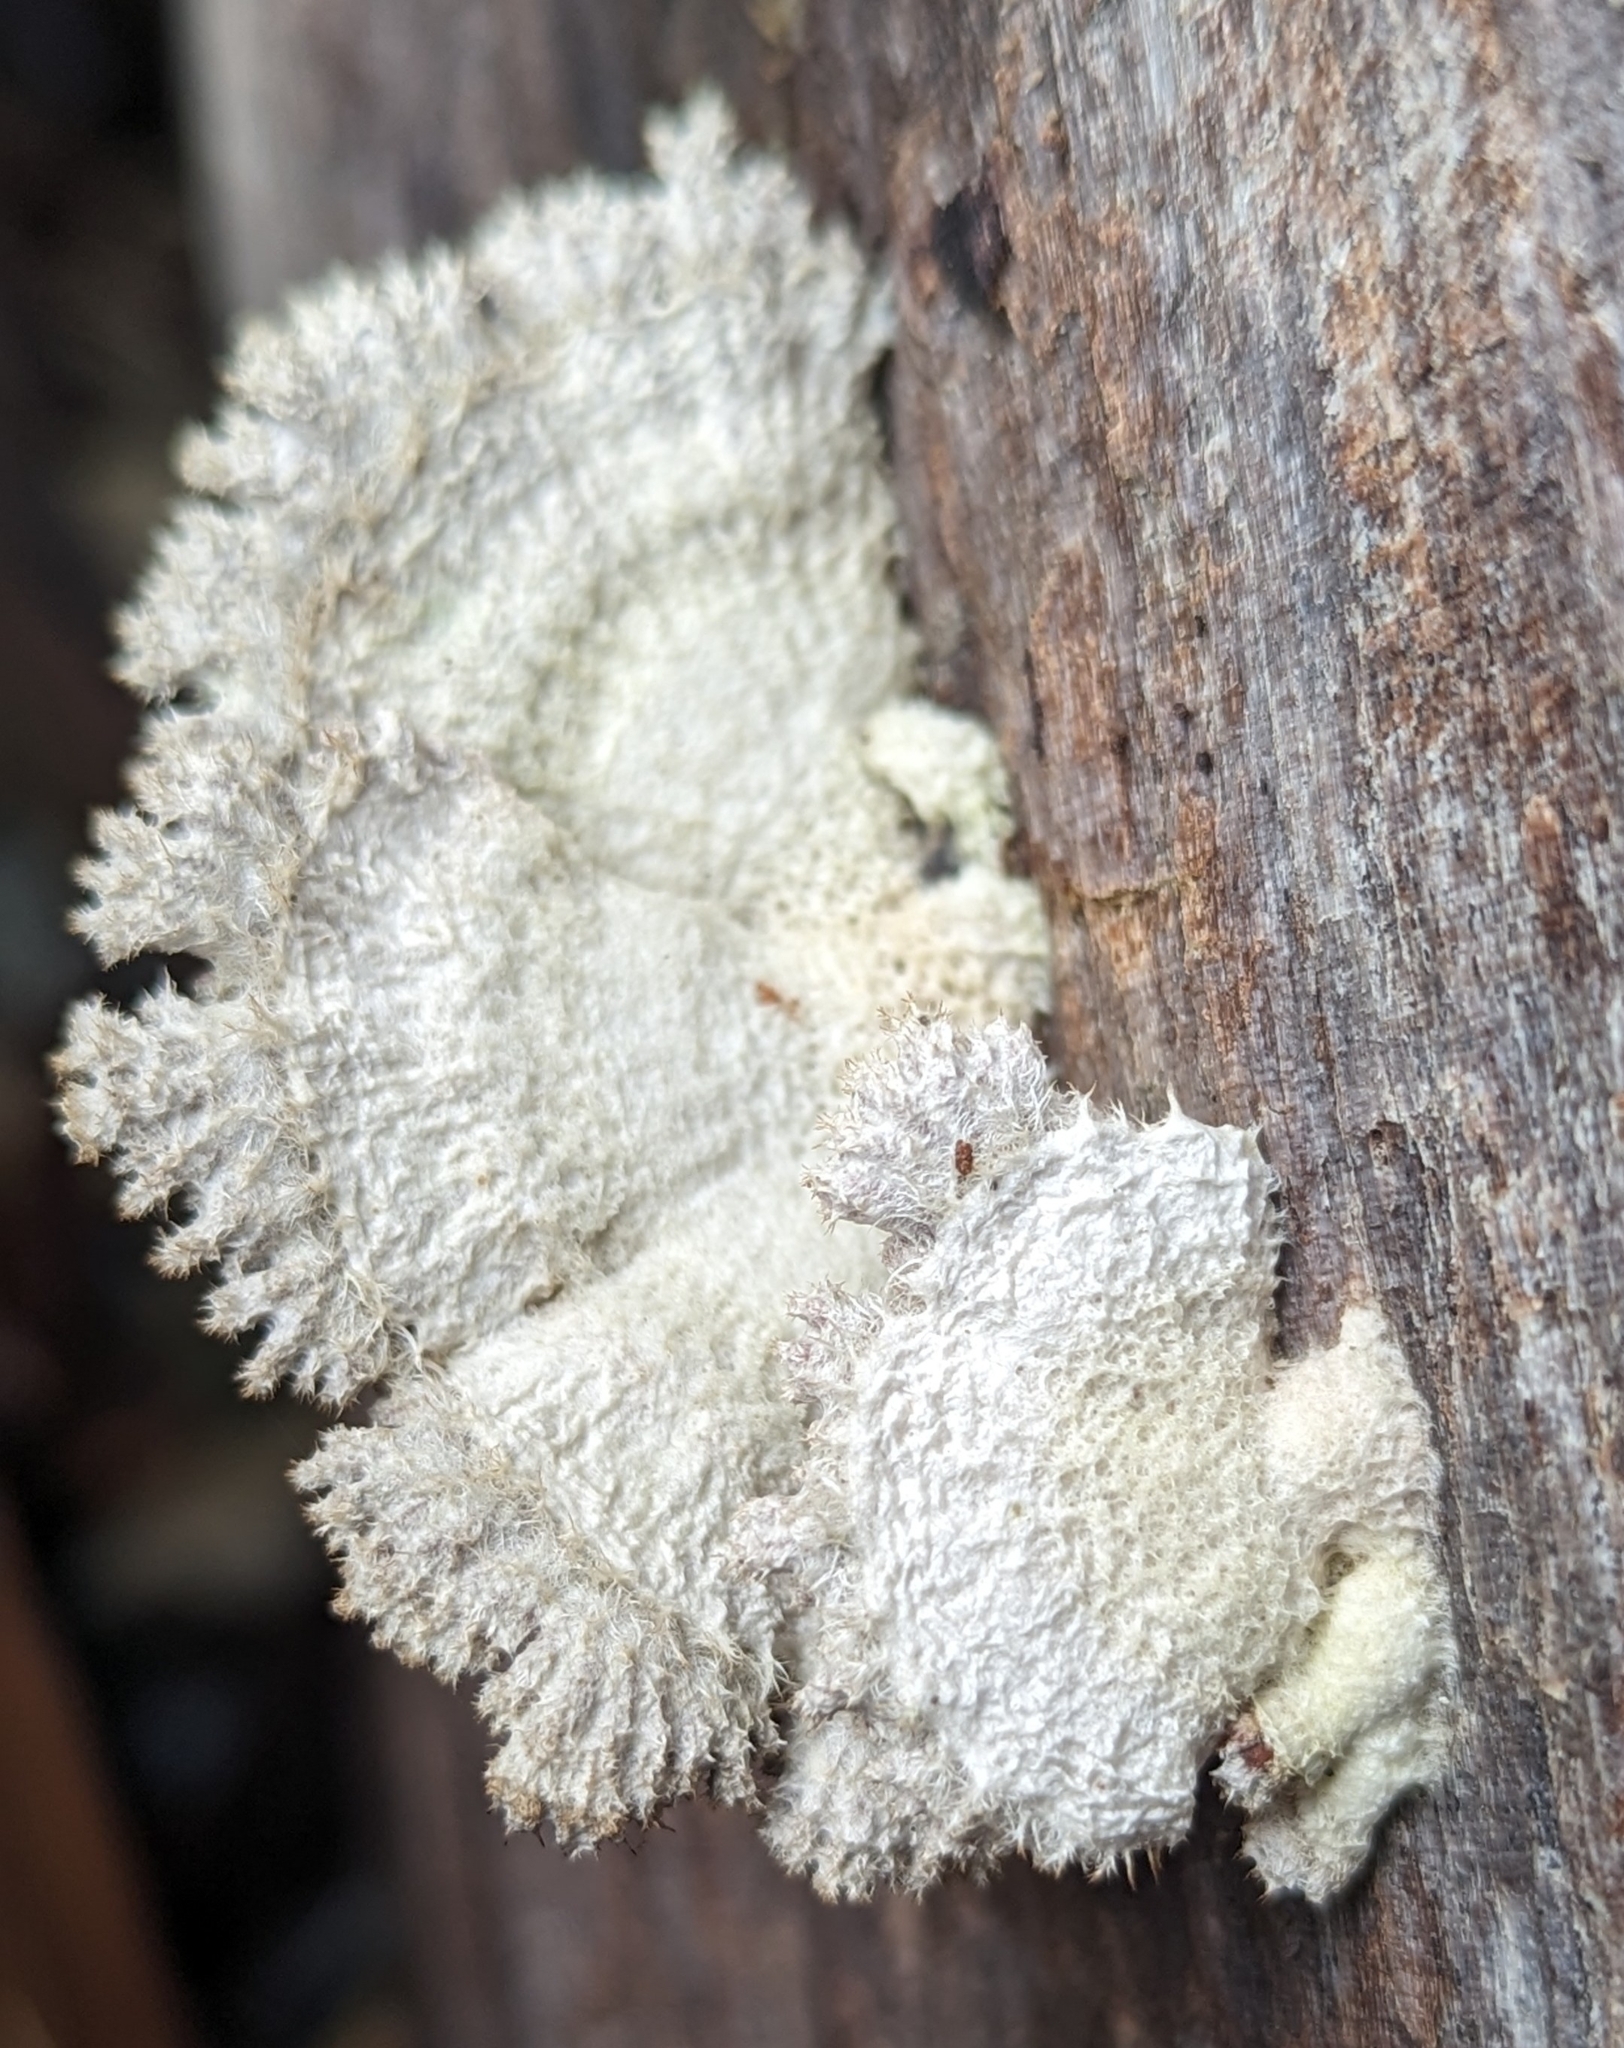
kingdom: Fungi
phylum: Basidiomycota
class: Agaricomycetes
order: Agaricales
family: Schizophyllaceae
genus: Schizophyllum
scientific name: Schizophyllum commune
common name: Common porecrust
